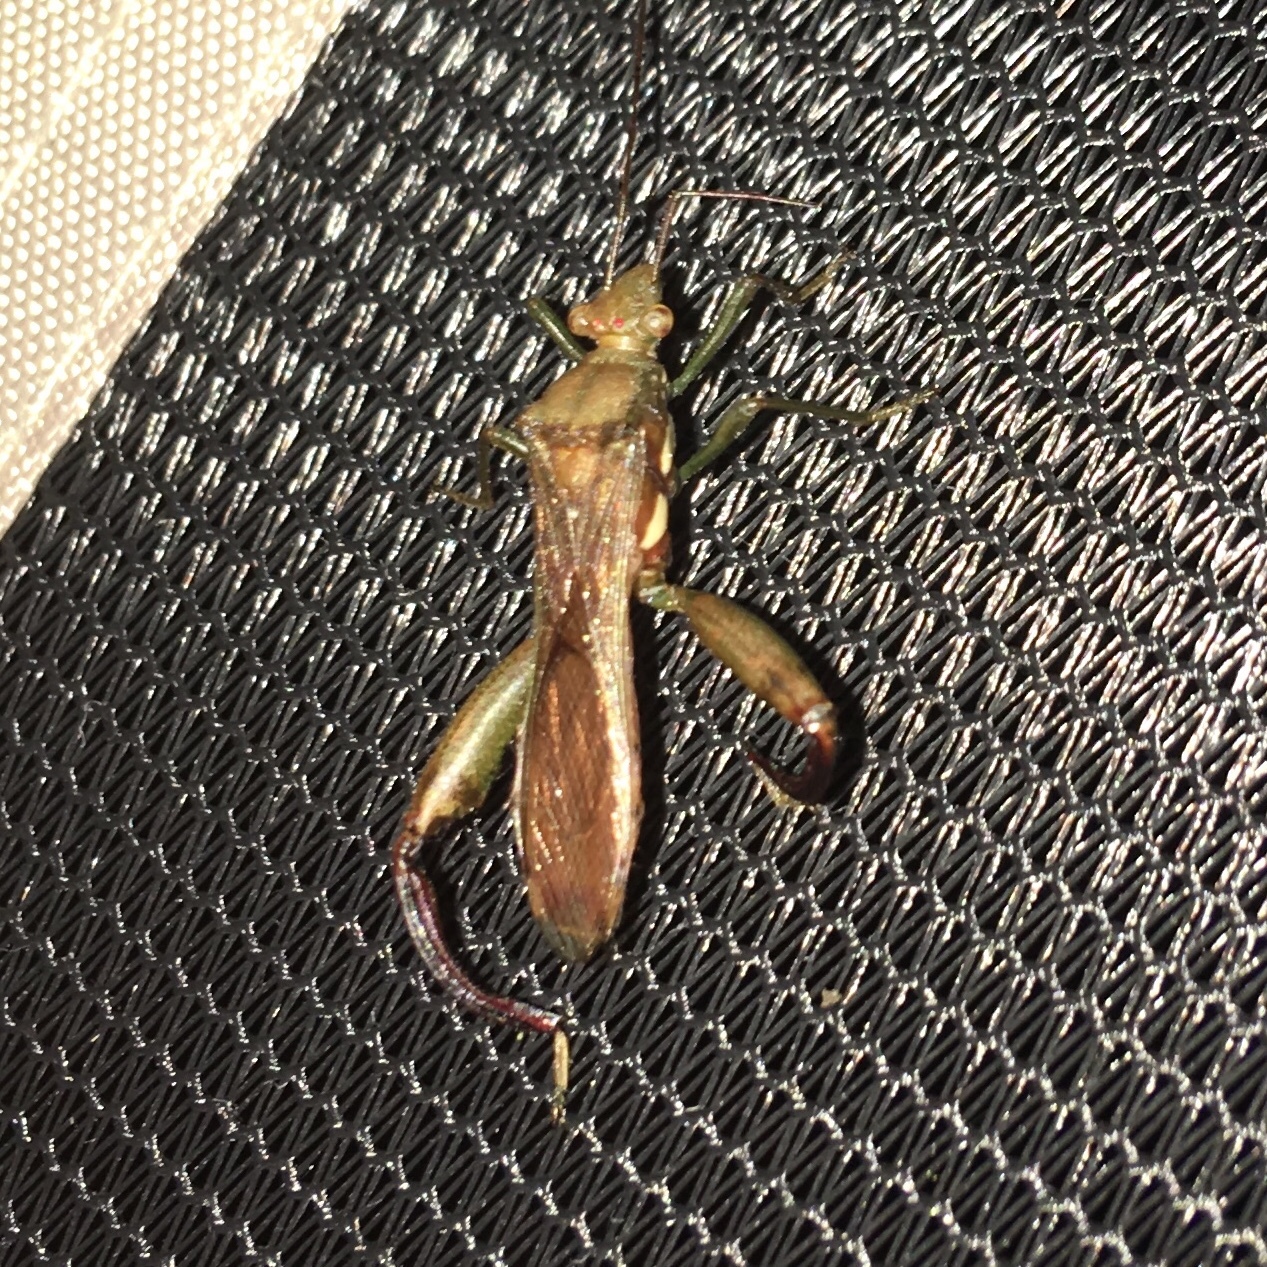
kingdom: Animalia
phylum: Arthropoda
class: Insecta
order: Hemiptera
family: Alydidae
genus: Hyalymenus
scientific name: Hyalymenus tarsatus
